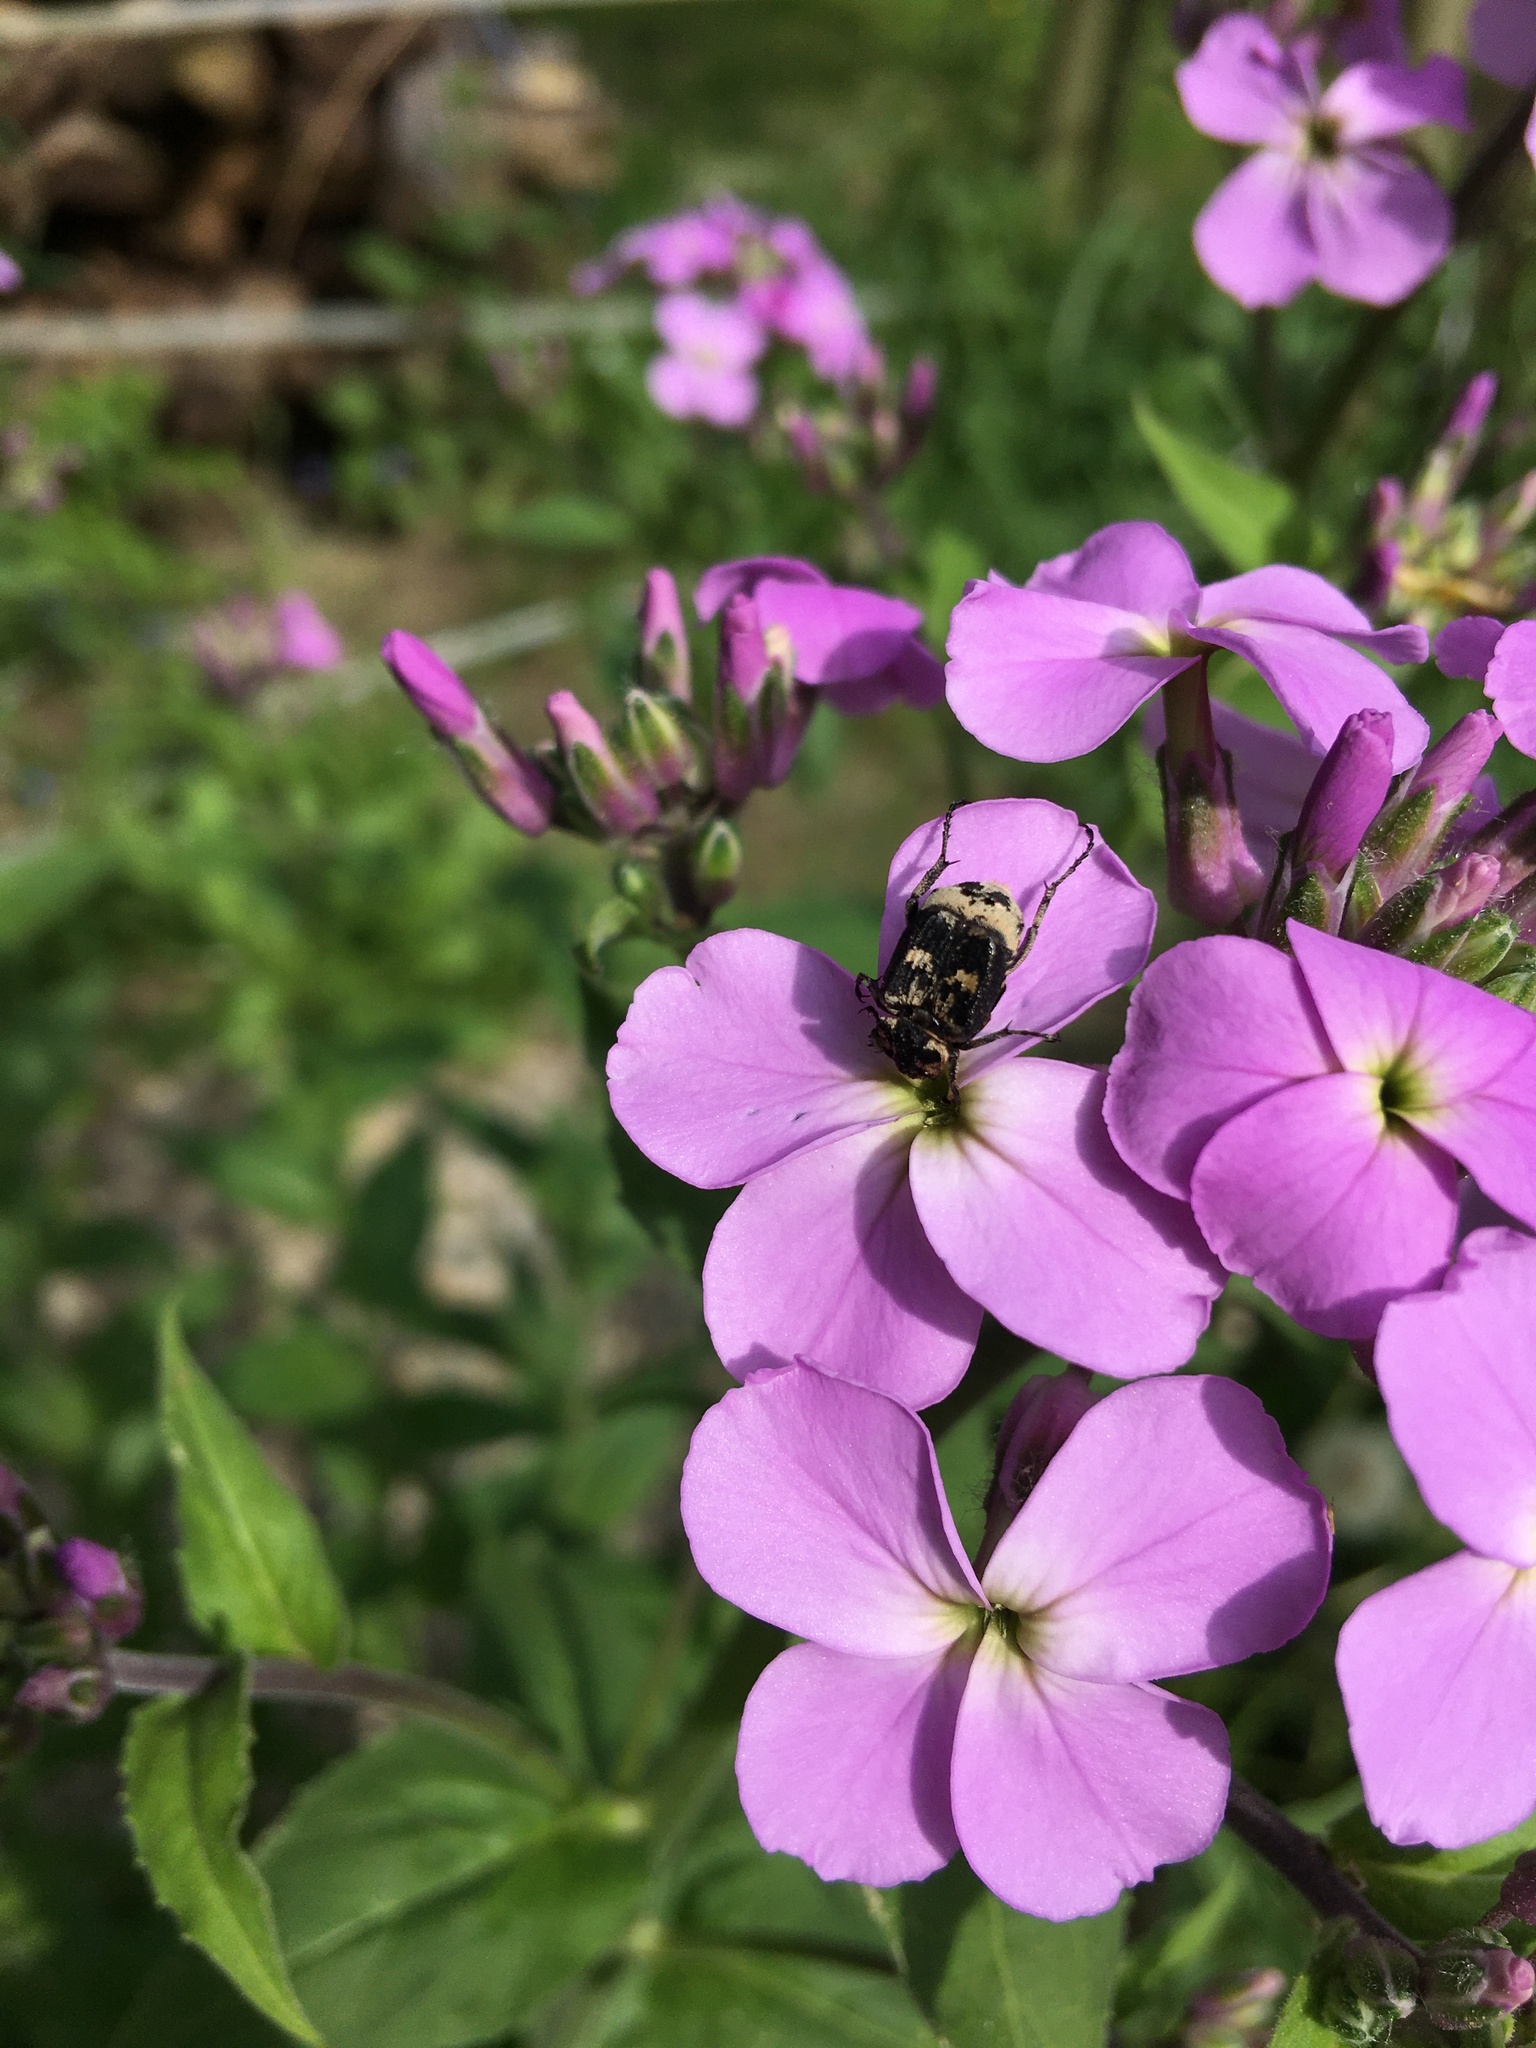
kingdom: Animalia
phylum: Arthropoda
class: Insecta
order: Coleoptera
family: Scarabaeidae
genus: Valgus
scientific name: Valgus hemipterus
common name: Bug flower chafer
